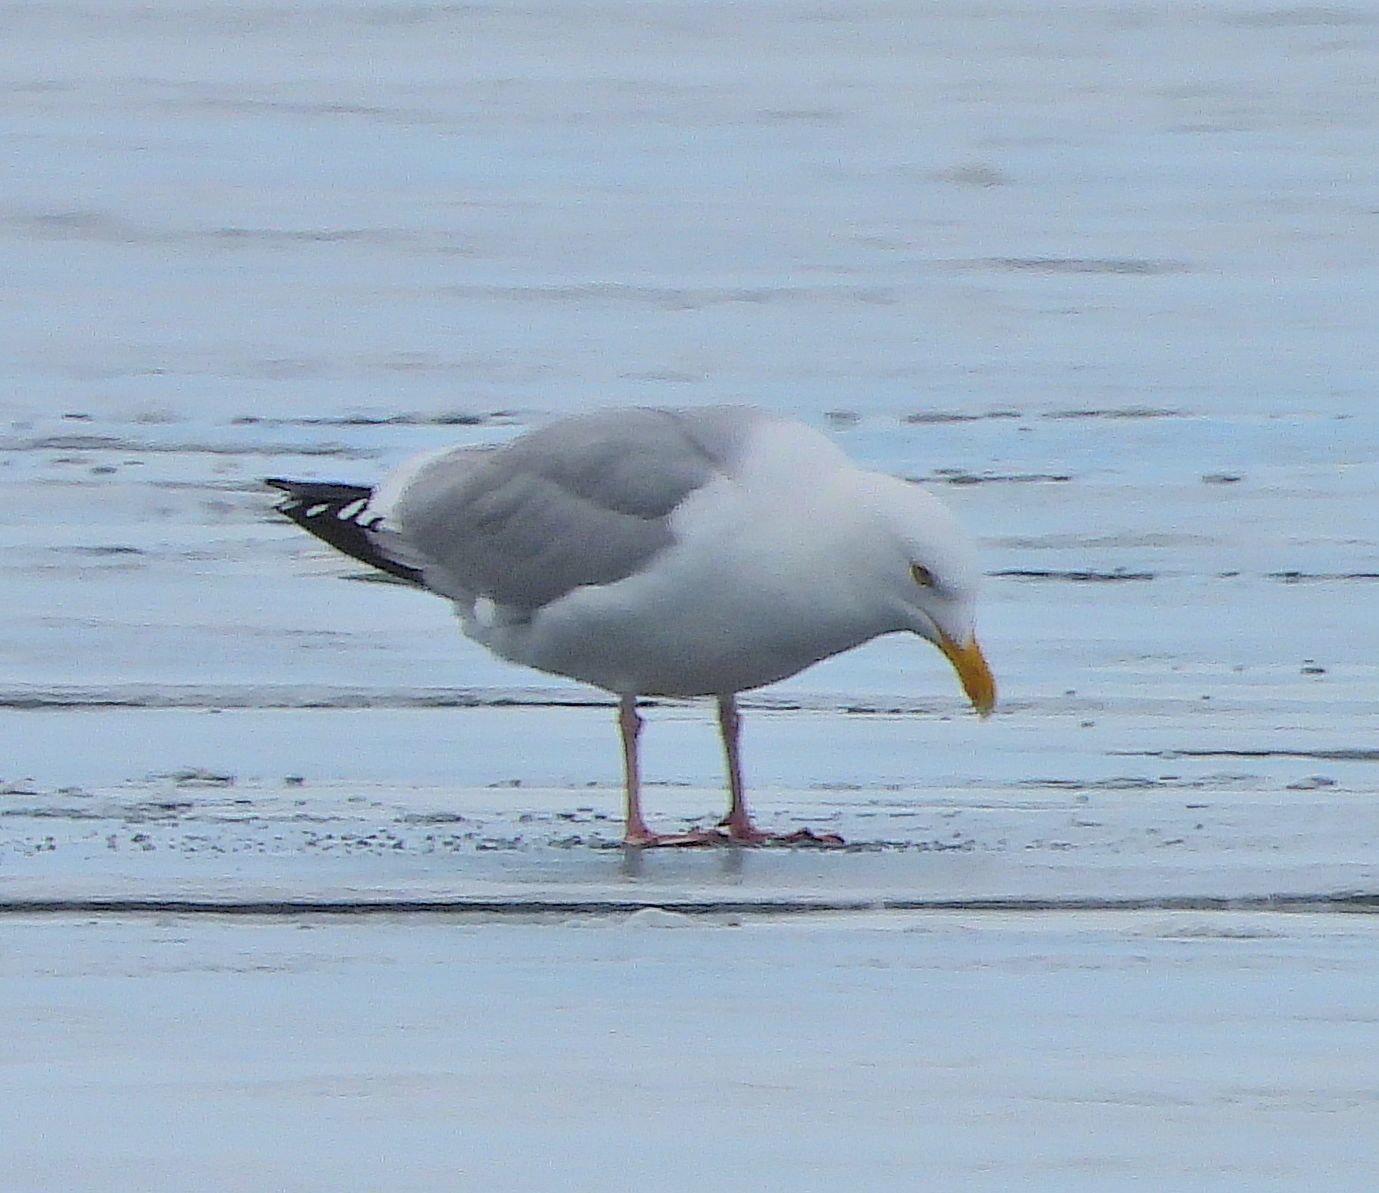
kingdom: Animalia
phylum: Chordata
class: Aves
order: Charadriiformes
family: Laridae
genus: Larus
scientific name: Larus argentatus
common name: Herring gull
